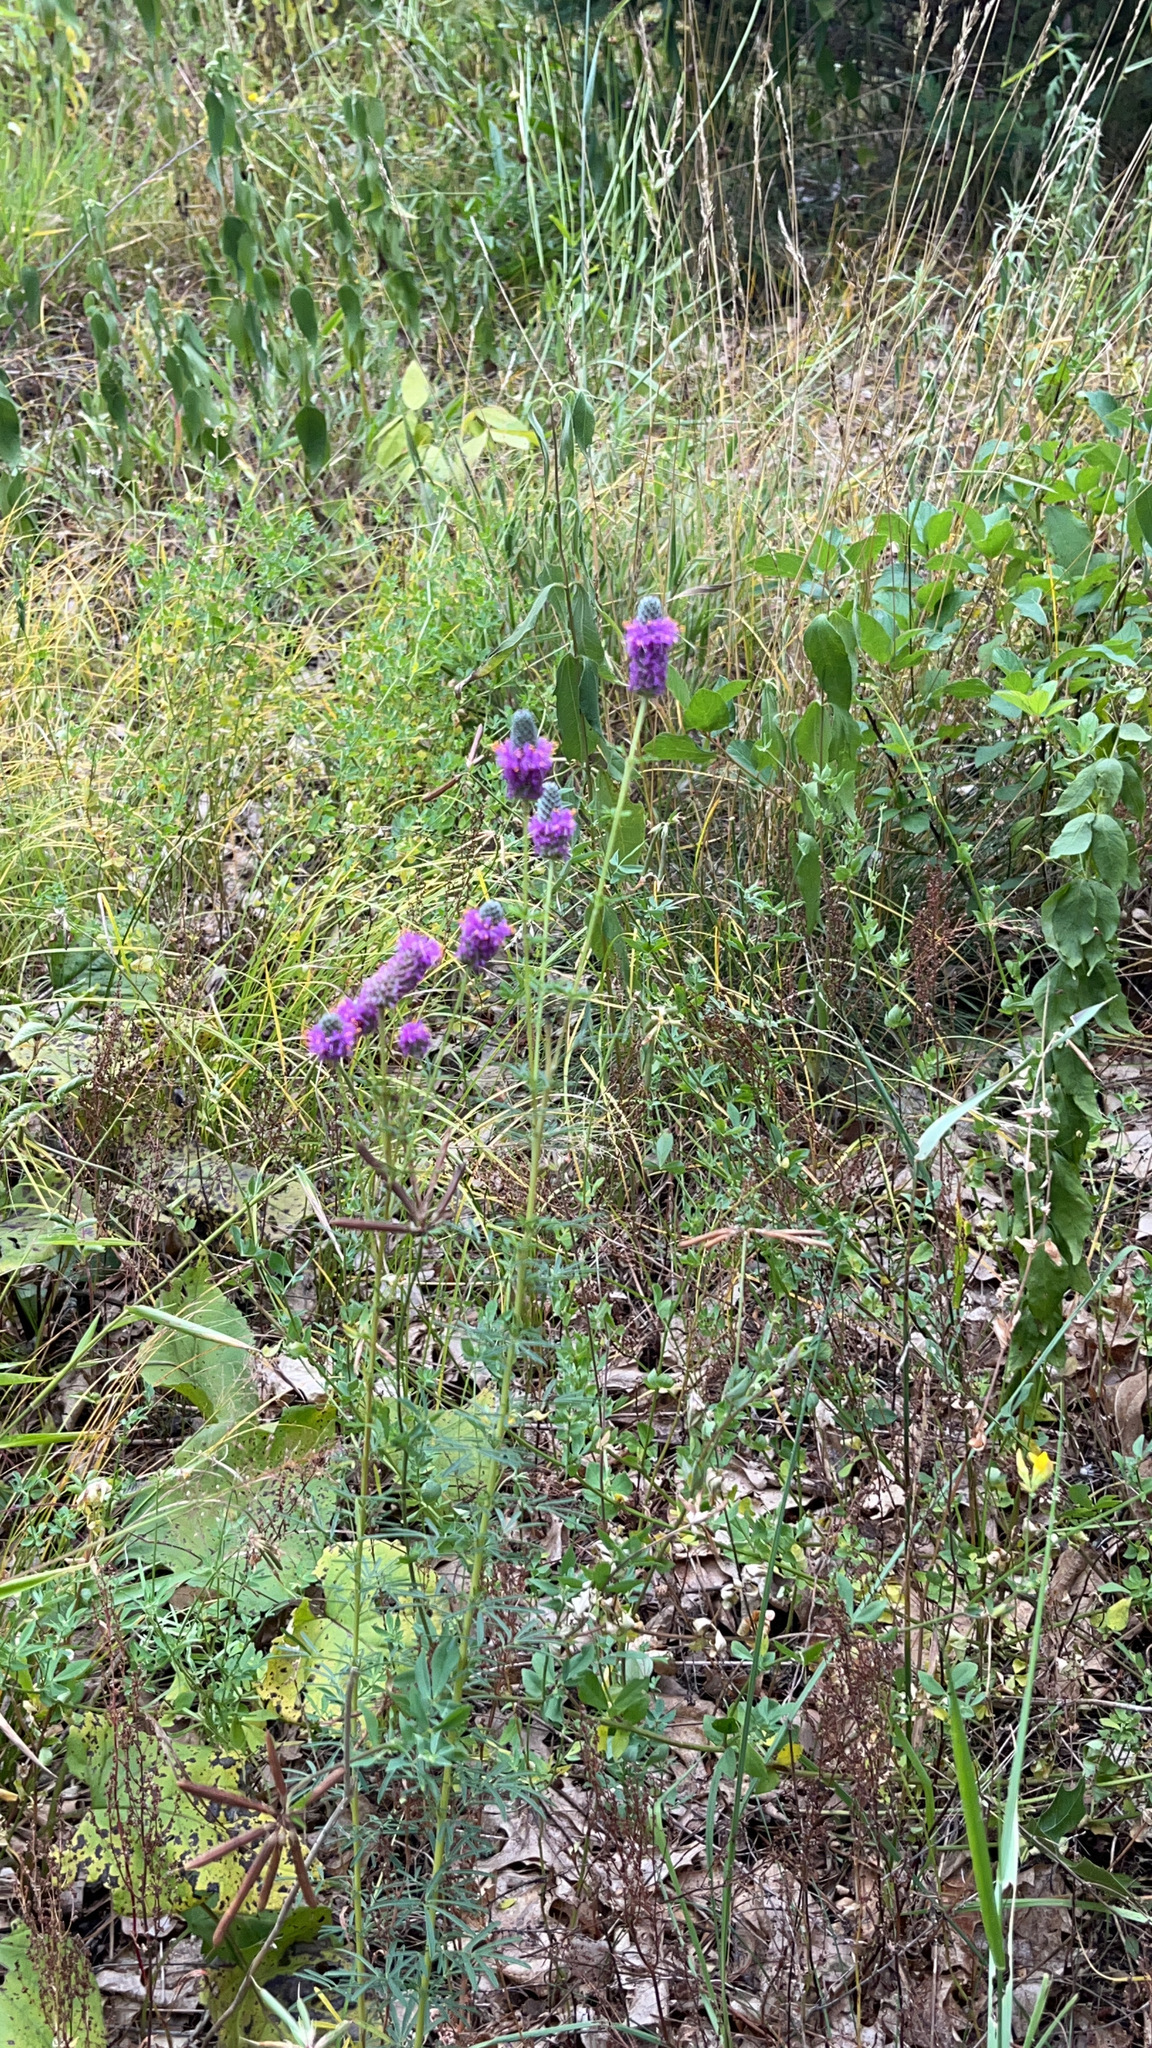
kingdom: Plantae
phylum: Tracheophyta
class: Magnoliopsida
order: Fabales
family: Fabaceae
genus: Dalea
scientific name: Dalea purpurea
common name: Purple prairie-clover
